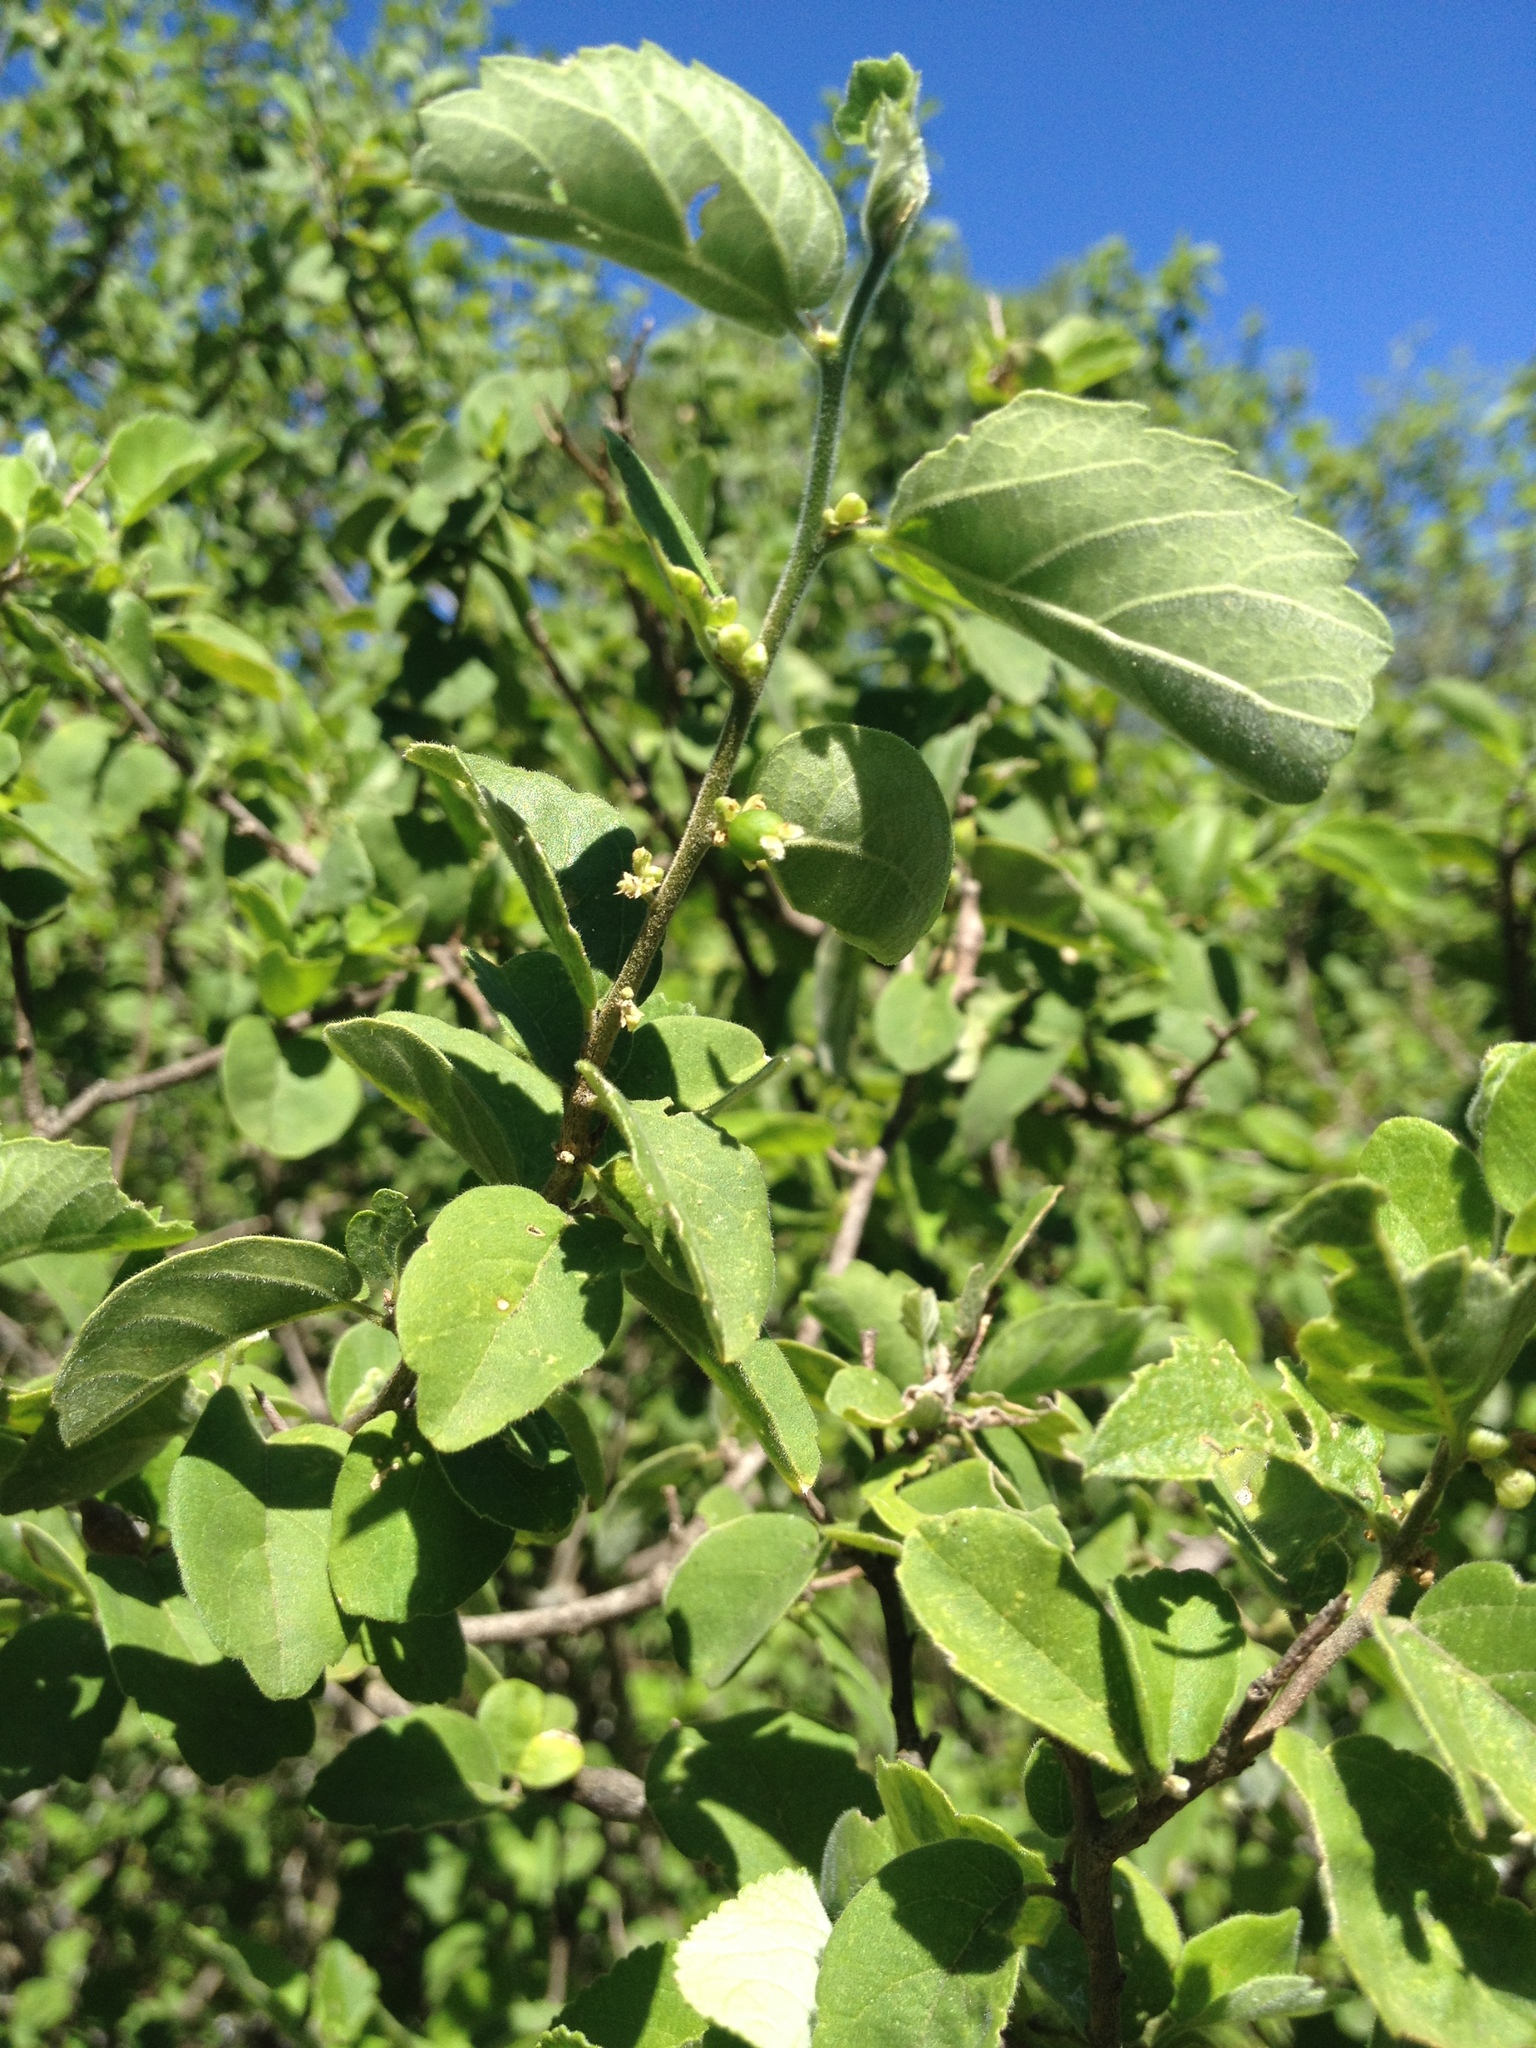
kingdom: Plantae
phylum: Tracheophyta
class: Magnoliopsida
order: Rosales
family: Cannabaceae
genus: Celtis
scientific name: Celtis chicape
